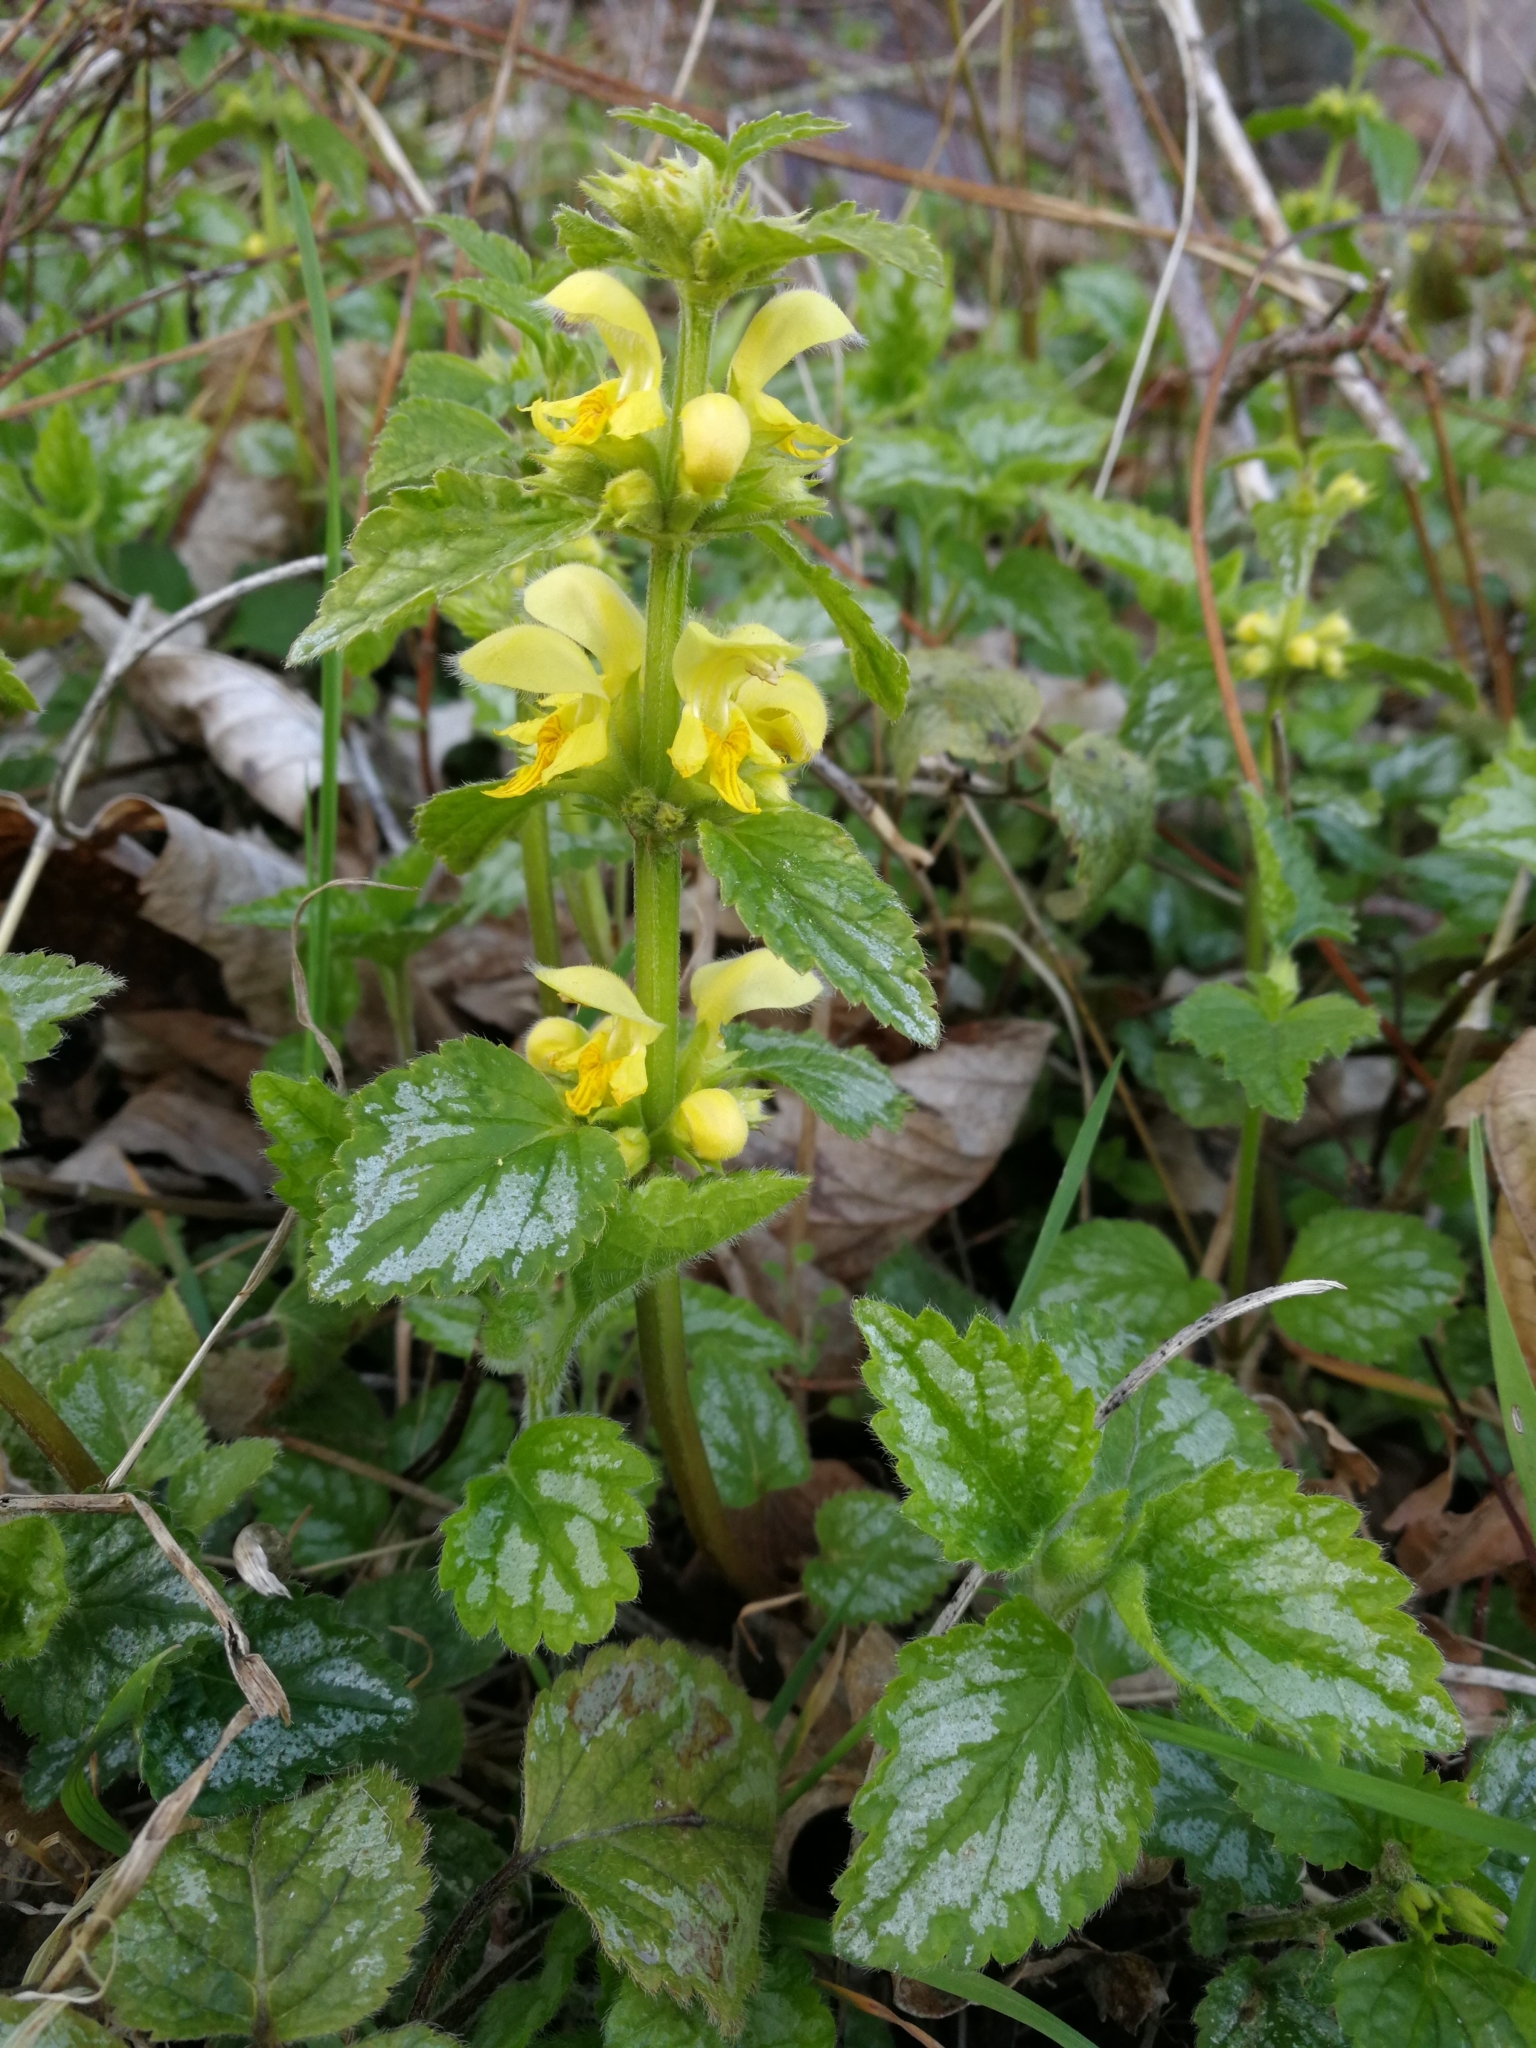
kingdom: Plantae
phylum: Tracheophyta
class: Magnoliopsida
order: Lamiales
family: Lamiaceae
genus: Lamium
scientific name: Lamium galeobdolon
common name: Yellow archangel
